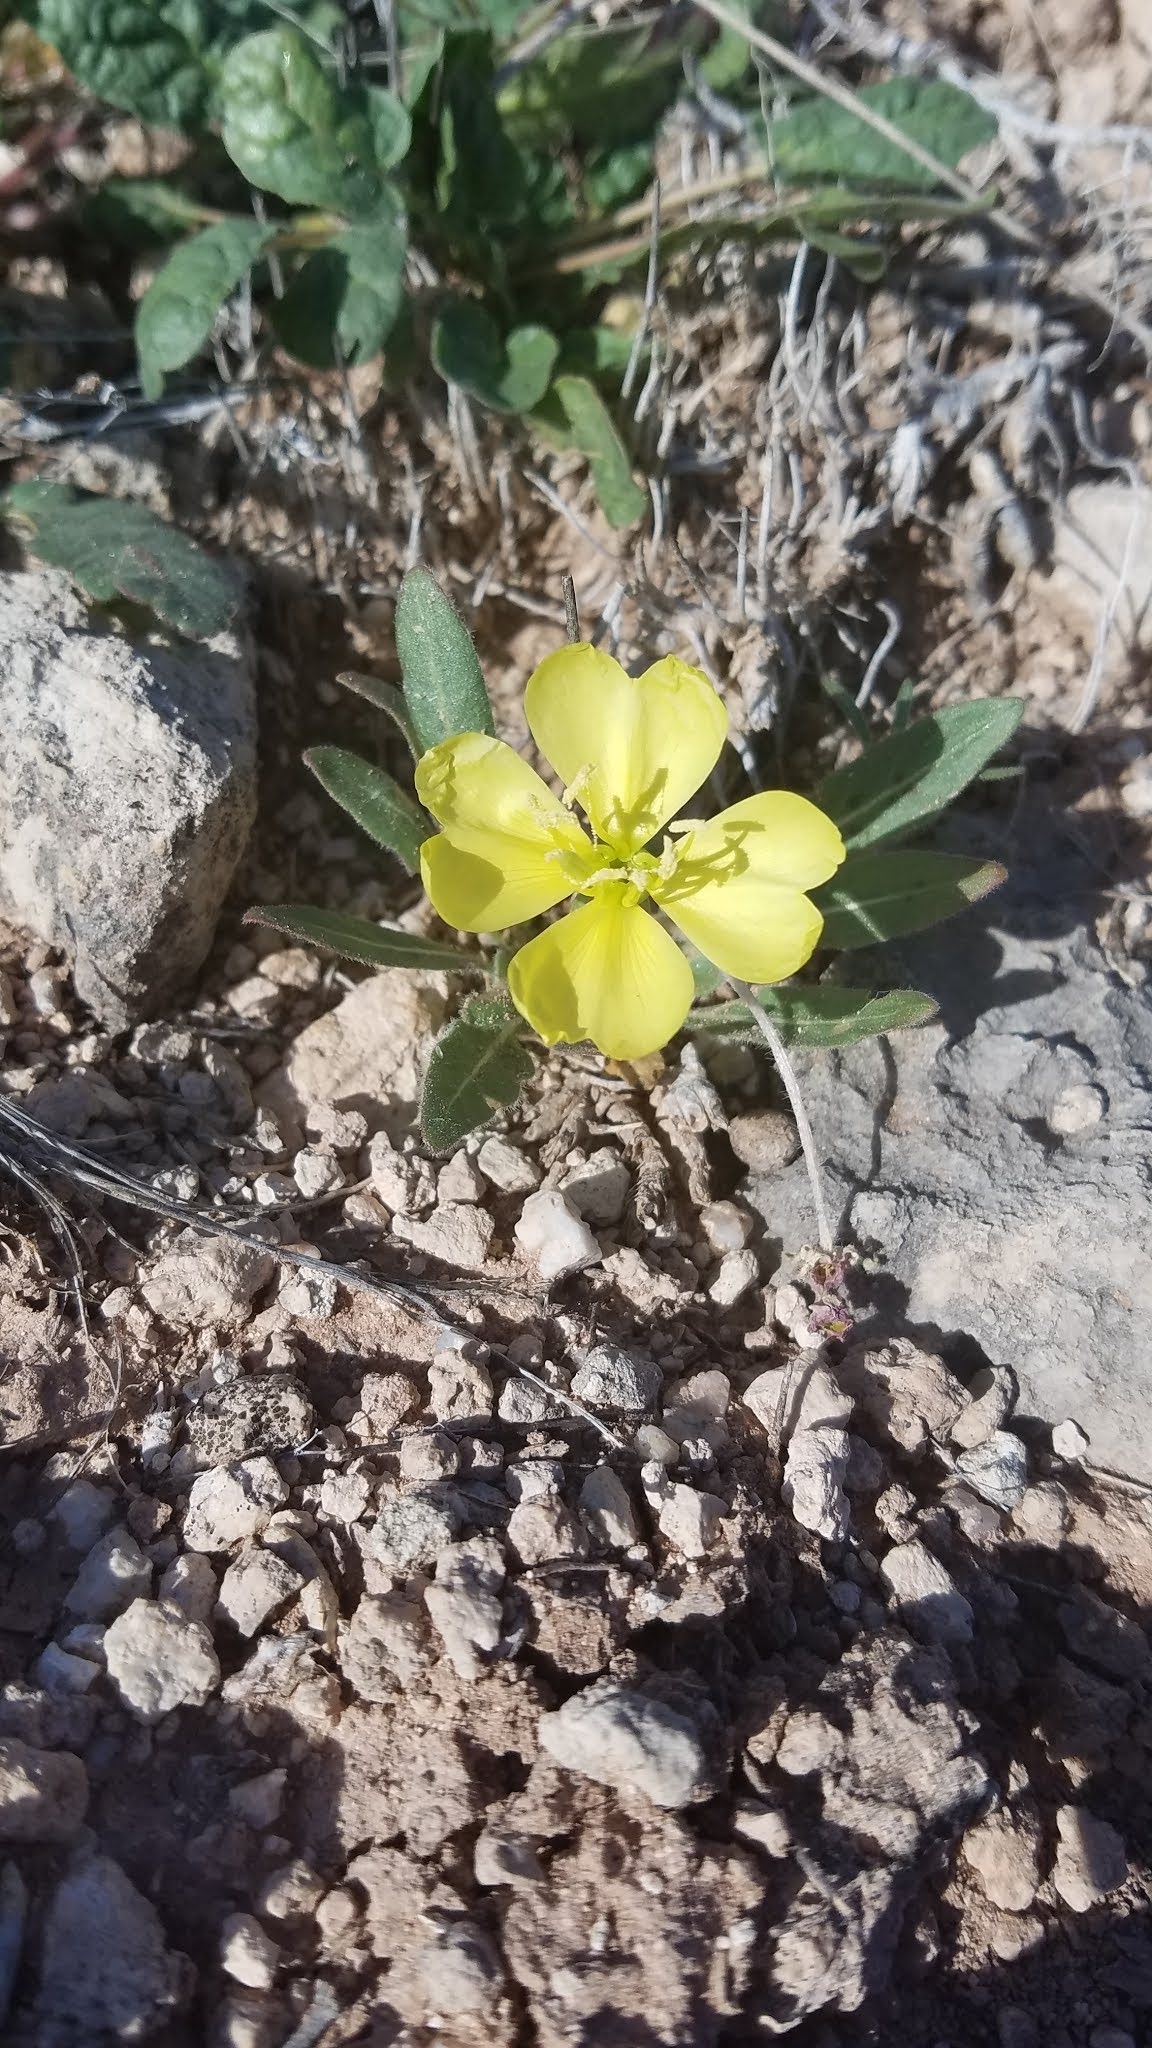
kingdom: Plantae
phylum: Tracheophyta
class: Magnoliopsida
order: Myrtales
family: Onagraceae
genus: Oenothera
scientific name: Oenothera primiveris
